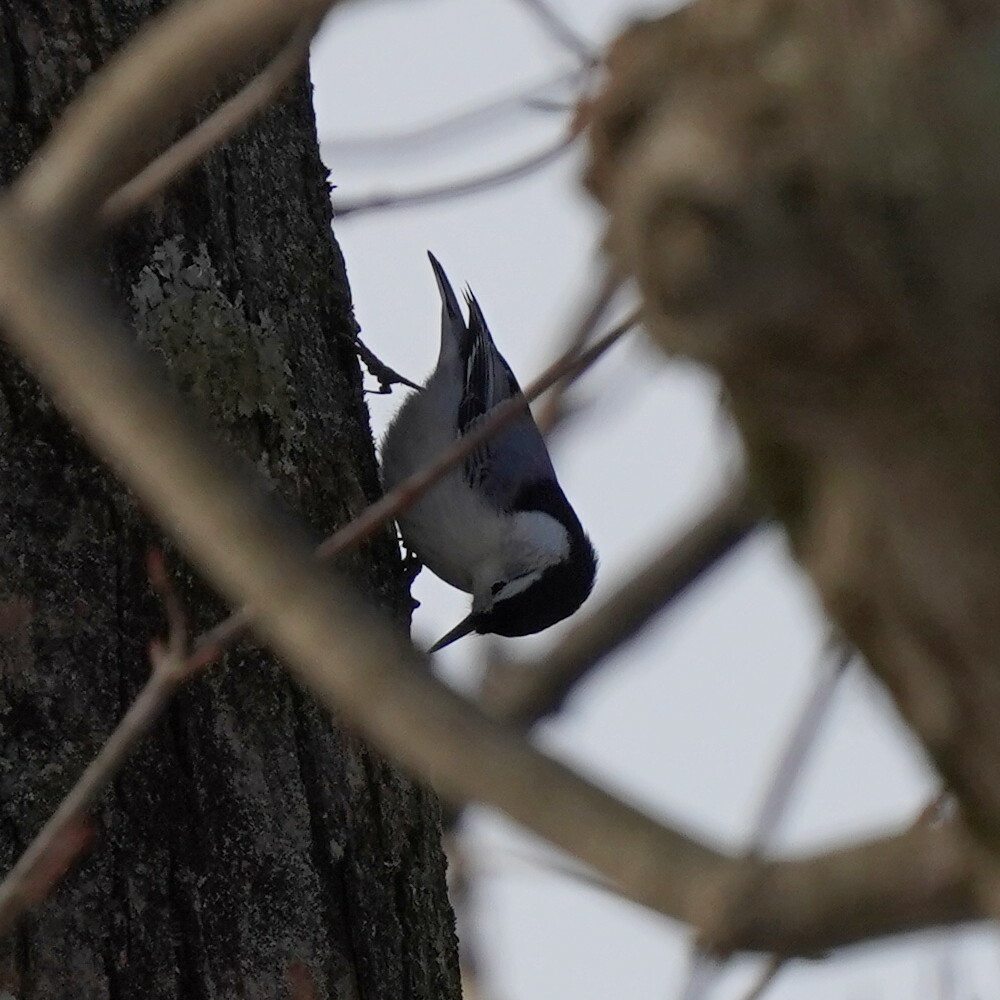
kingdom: Animalia
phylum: Chordata
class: Aves
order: Passeriformes
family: Sittidae
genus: Sitta
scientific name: Sitta carolinensis
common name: White-breasted nuthatch
